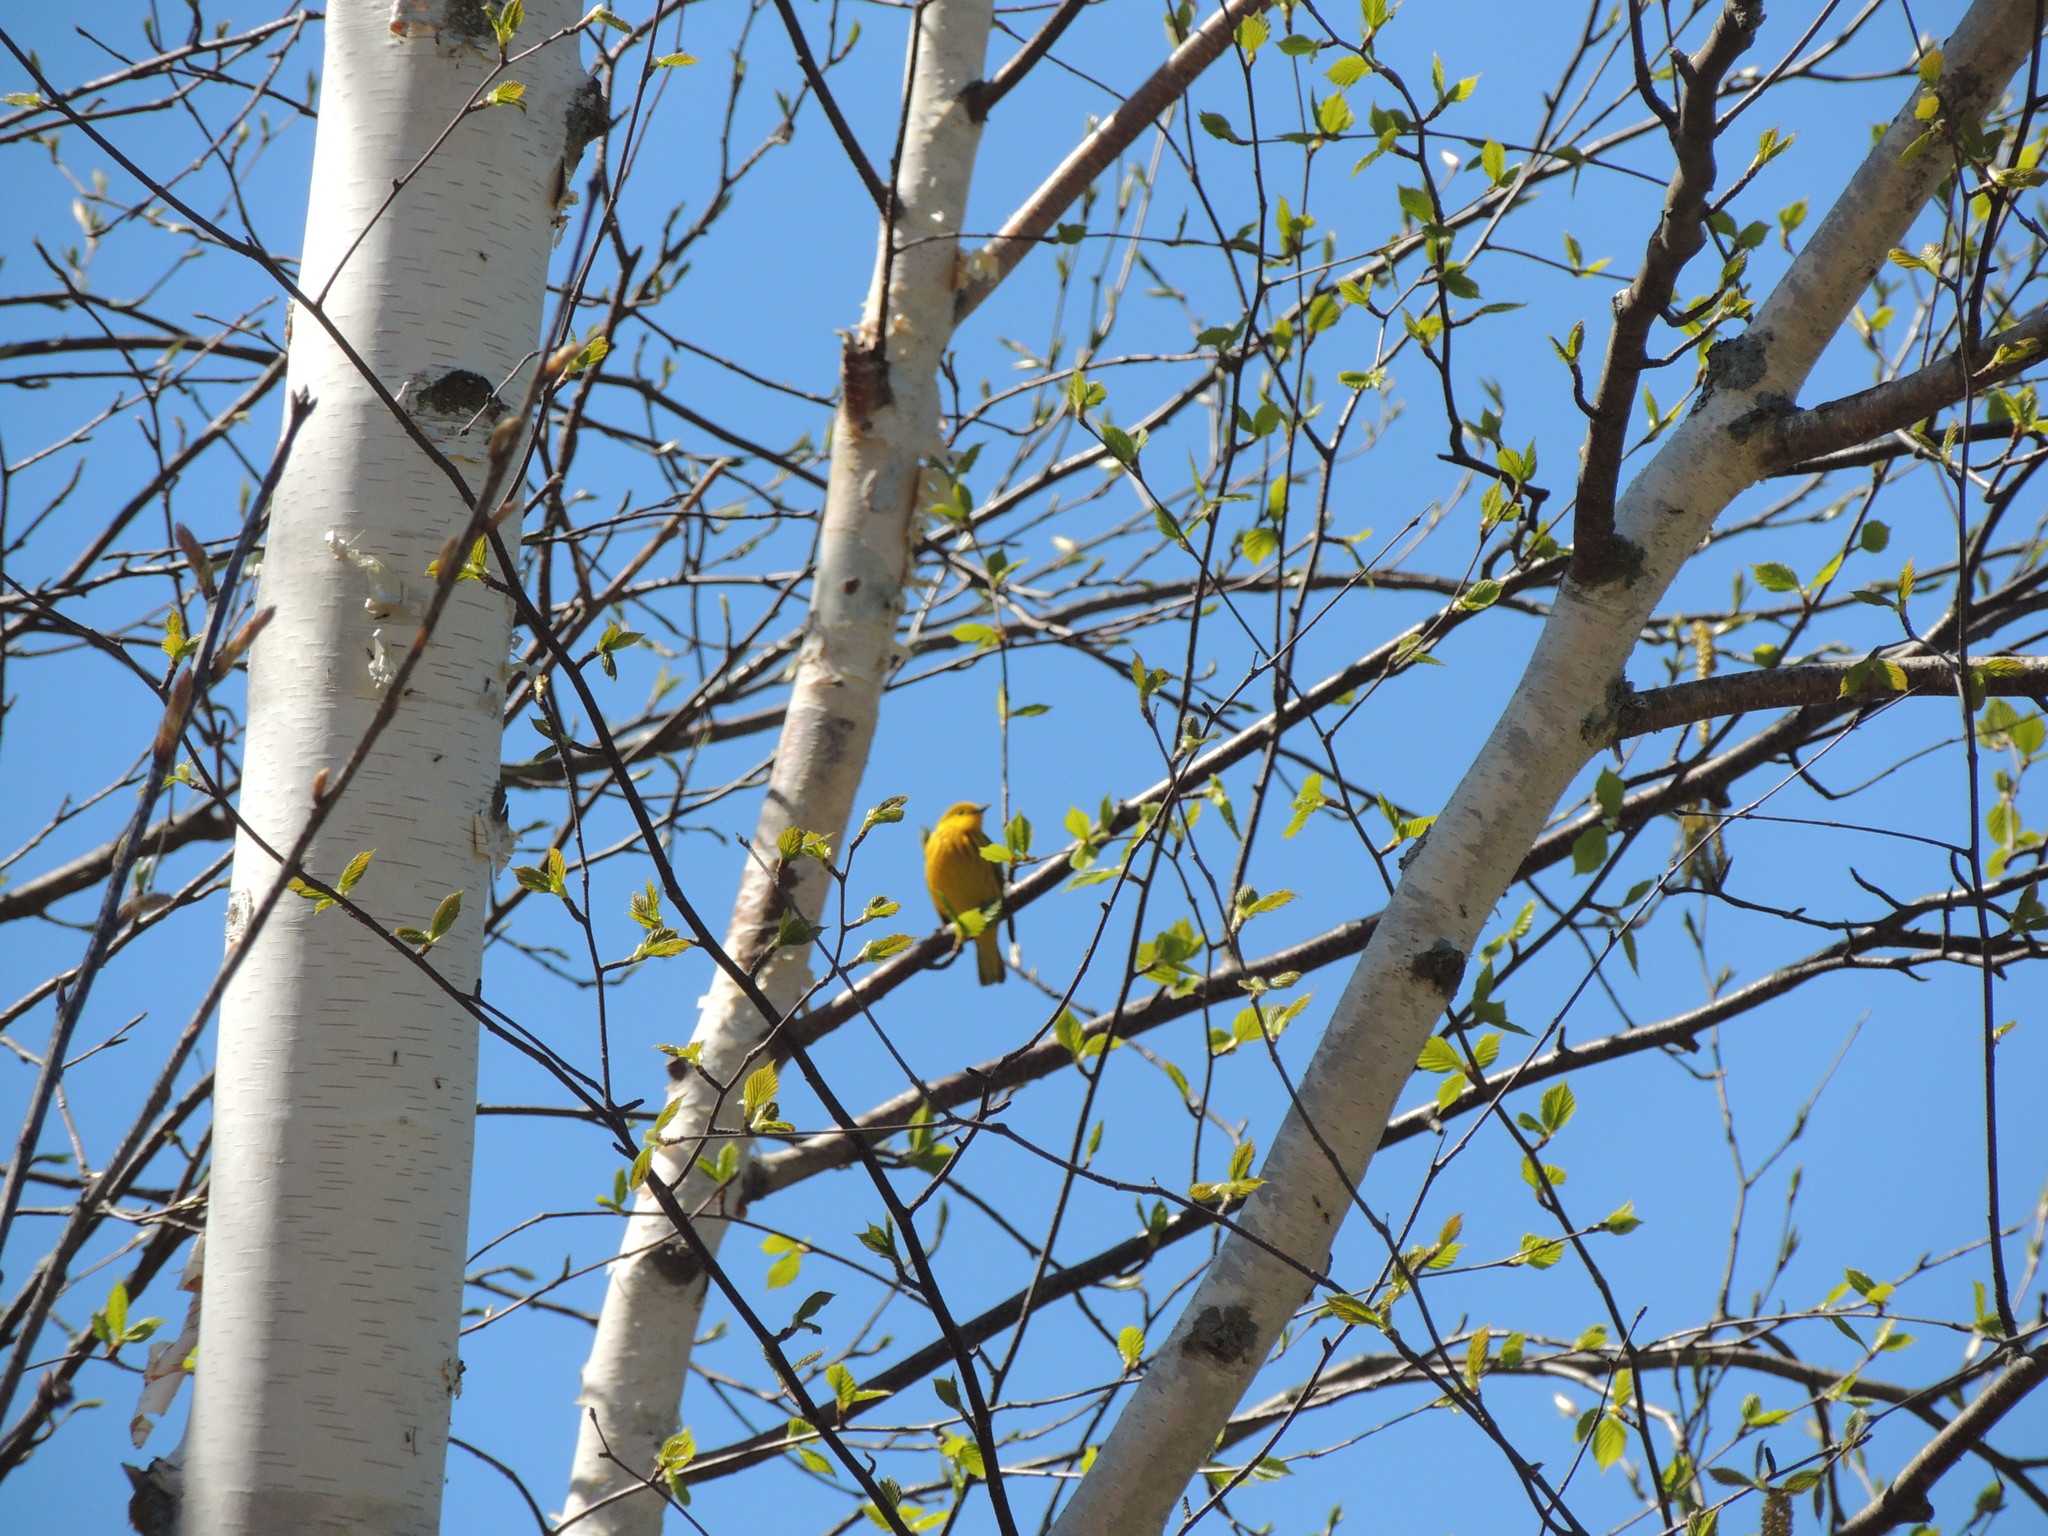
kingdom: Animalia
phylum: Chordata
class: Aves
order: Passeriformes
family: Parulidae
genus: Setophaga
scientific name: Setophaga petechia
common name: Yellow warbler
